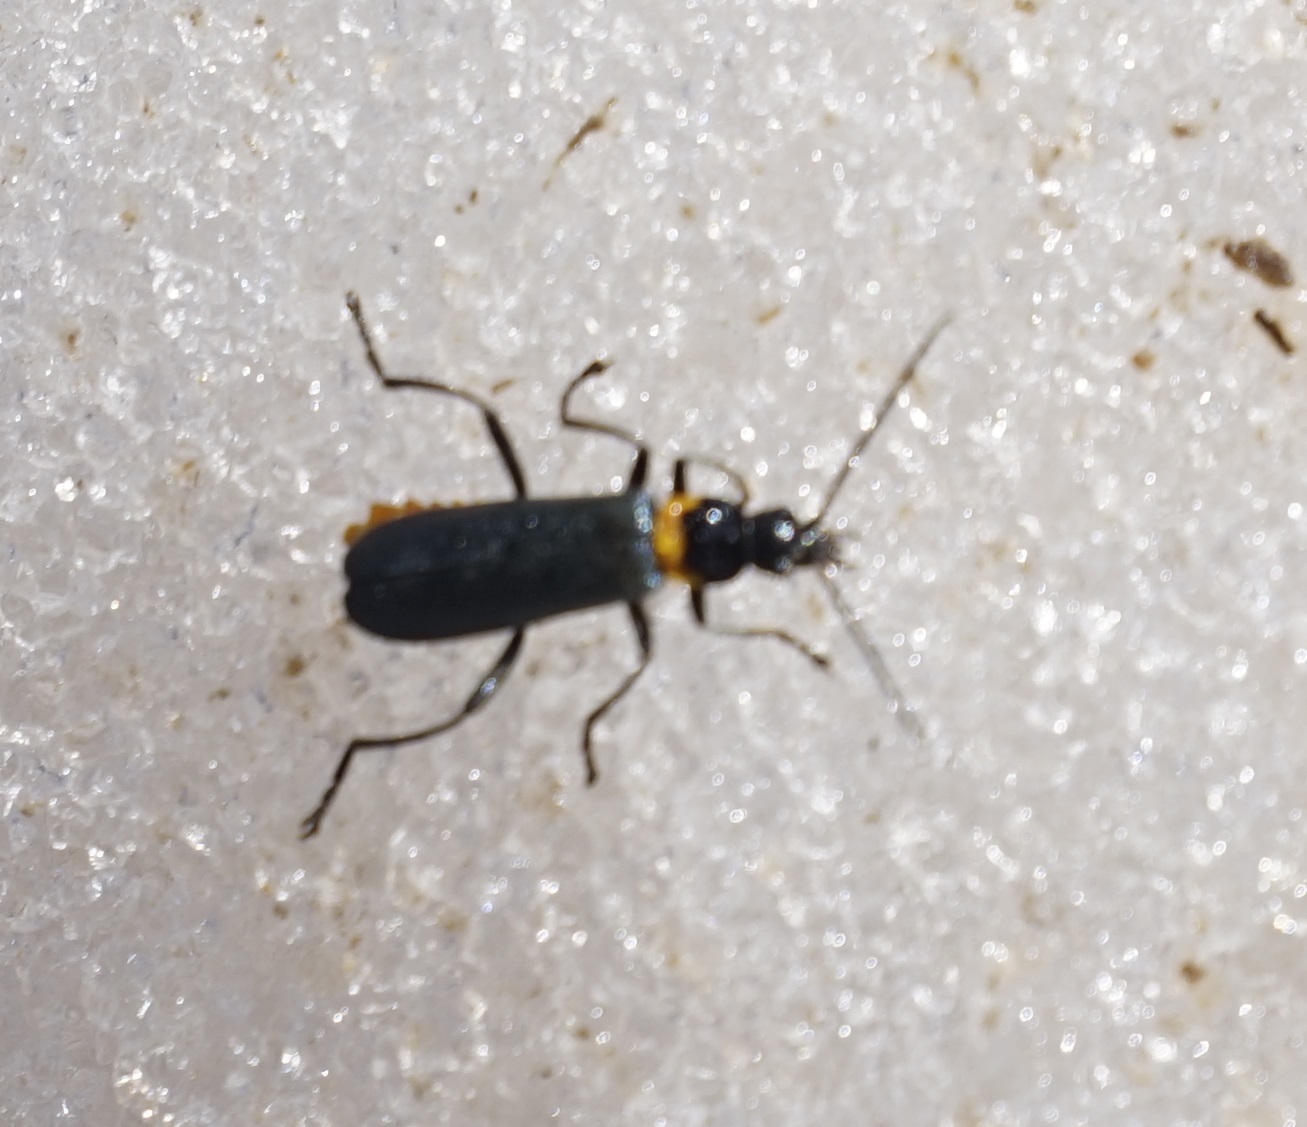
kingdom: Animalia
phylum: Arthropoda
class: Insecta
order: Coleoptera
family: Cantharidae
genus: Chauliognathus
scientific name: Chauliognathus
